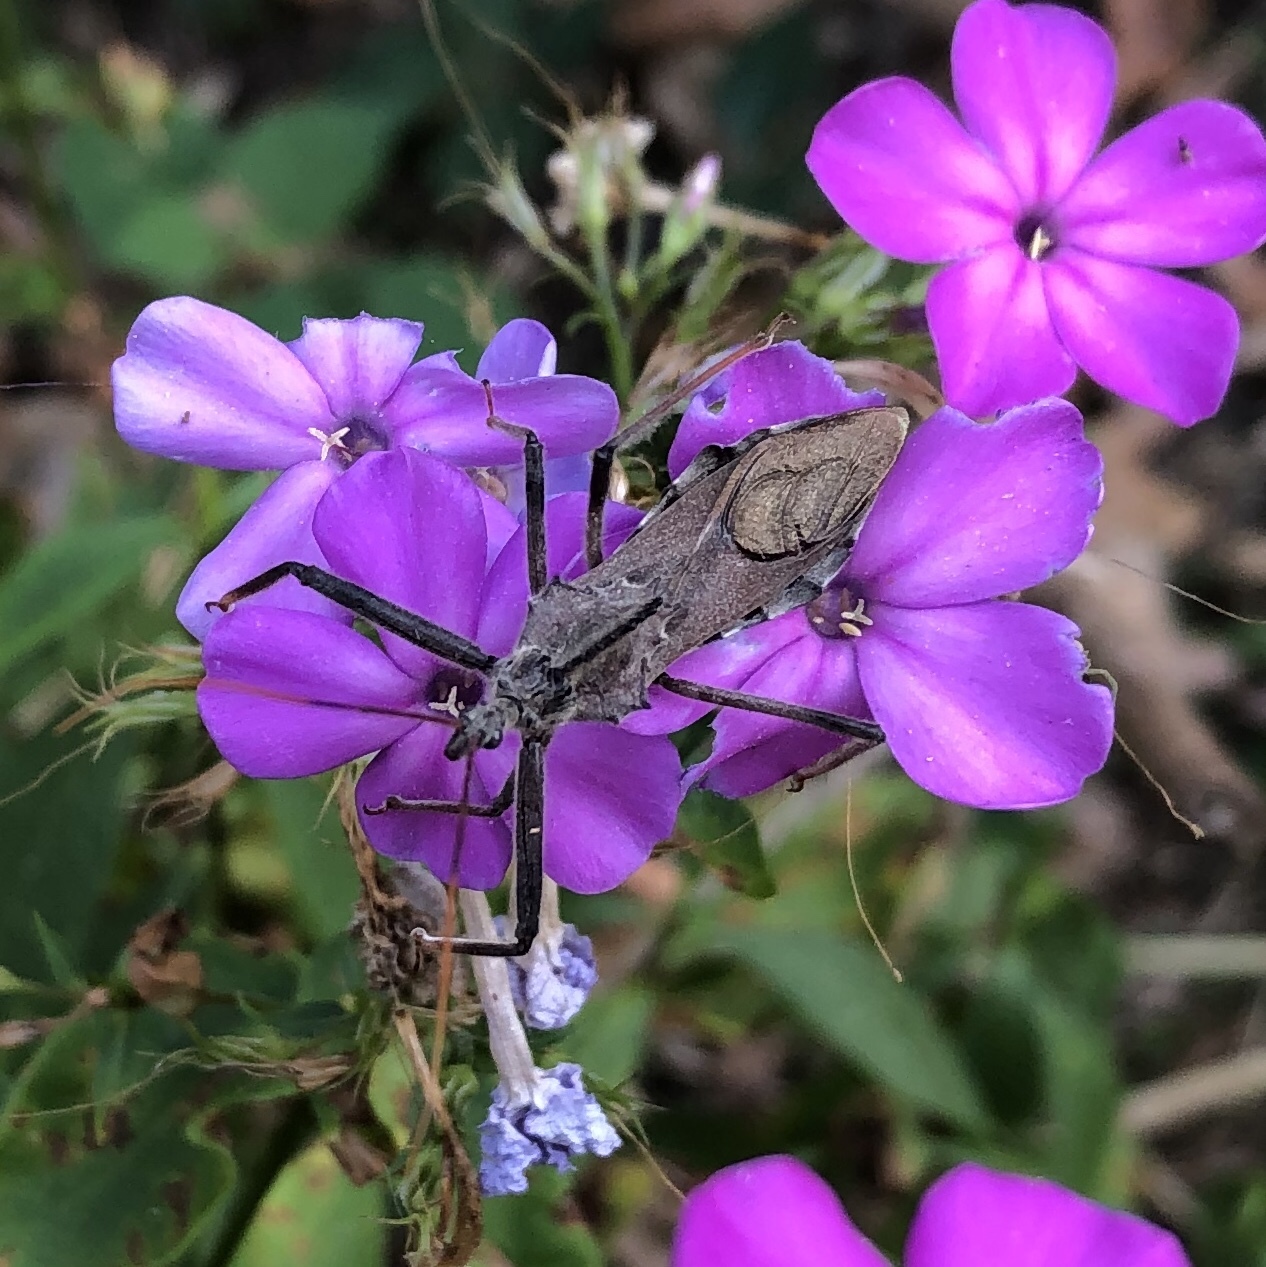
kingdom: Animalia
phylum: Arthropoda
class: Insecta
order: Hemiptera
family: Reduviidae
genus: Arilus
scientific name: Arilus cristatus
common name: North american wheel bug
